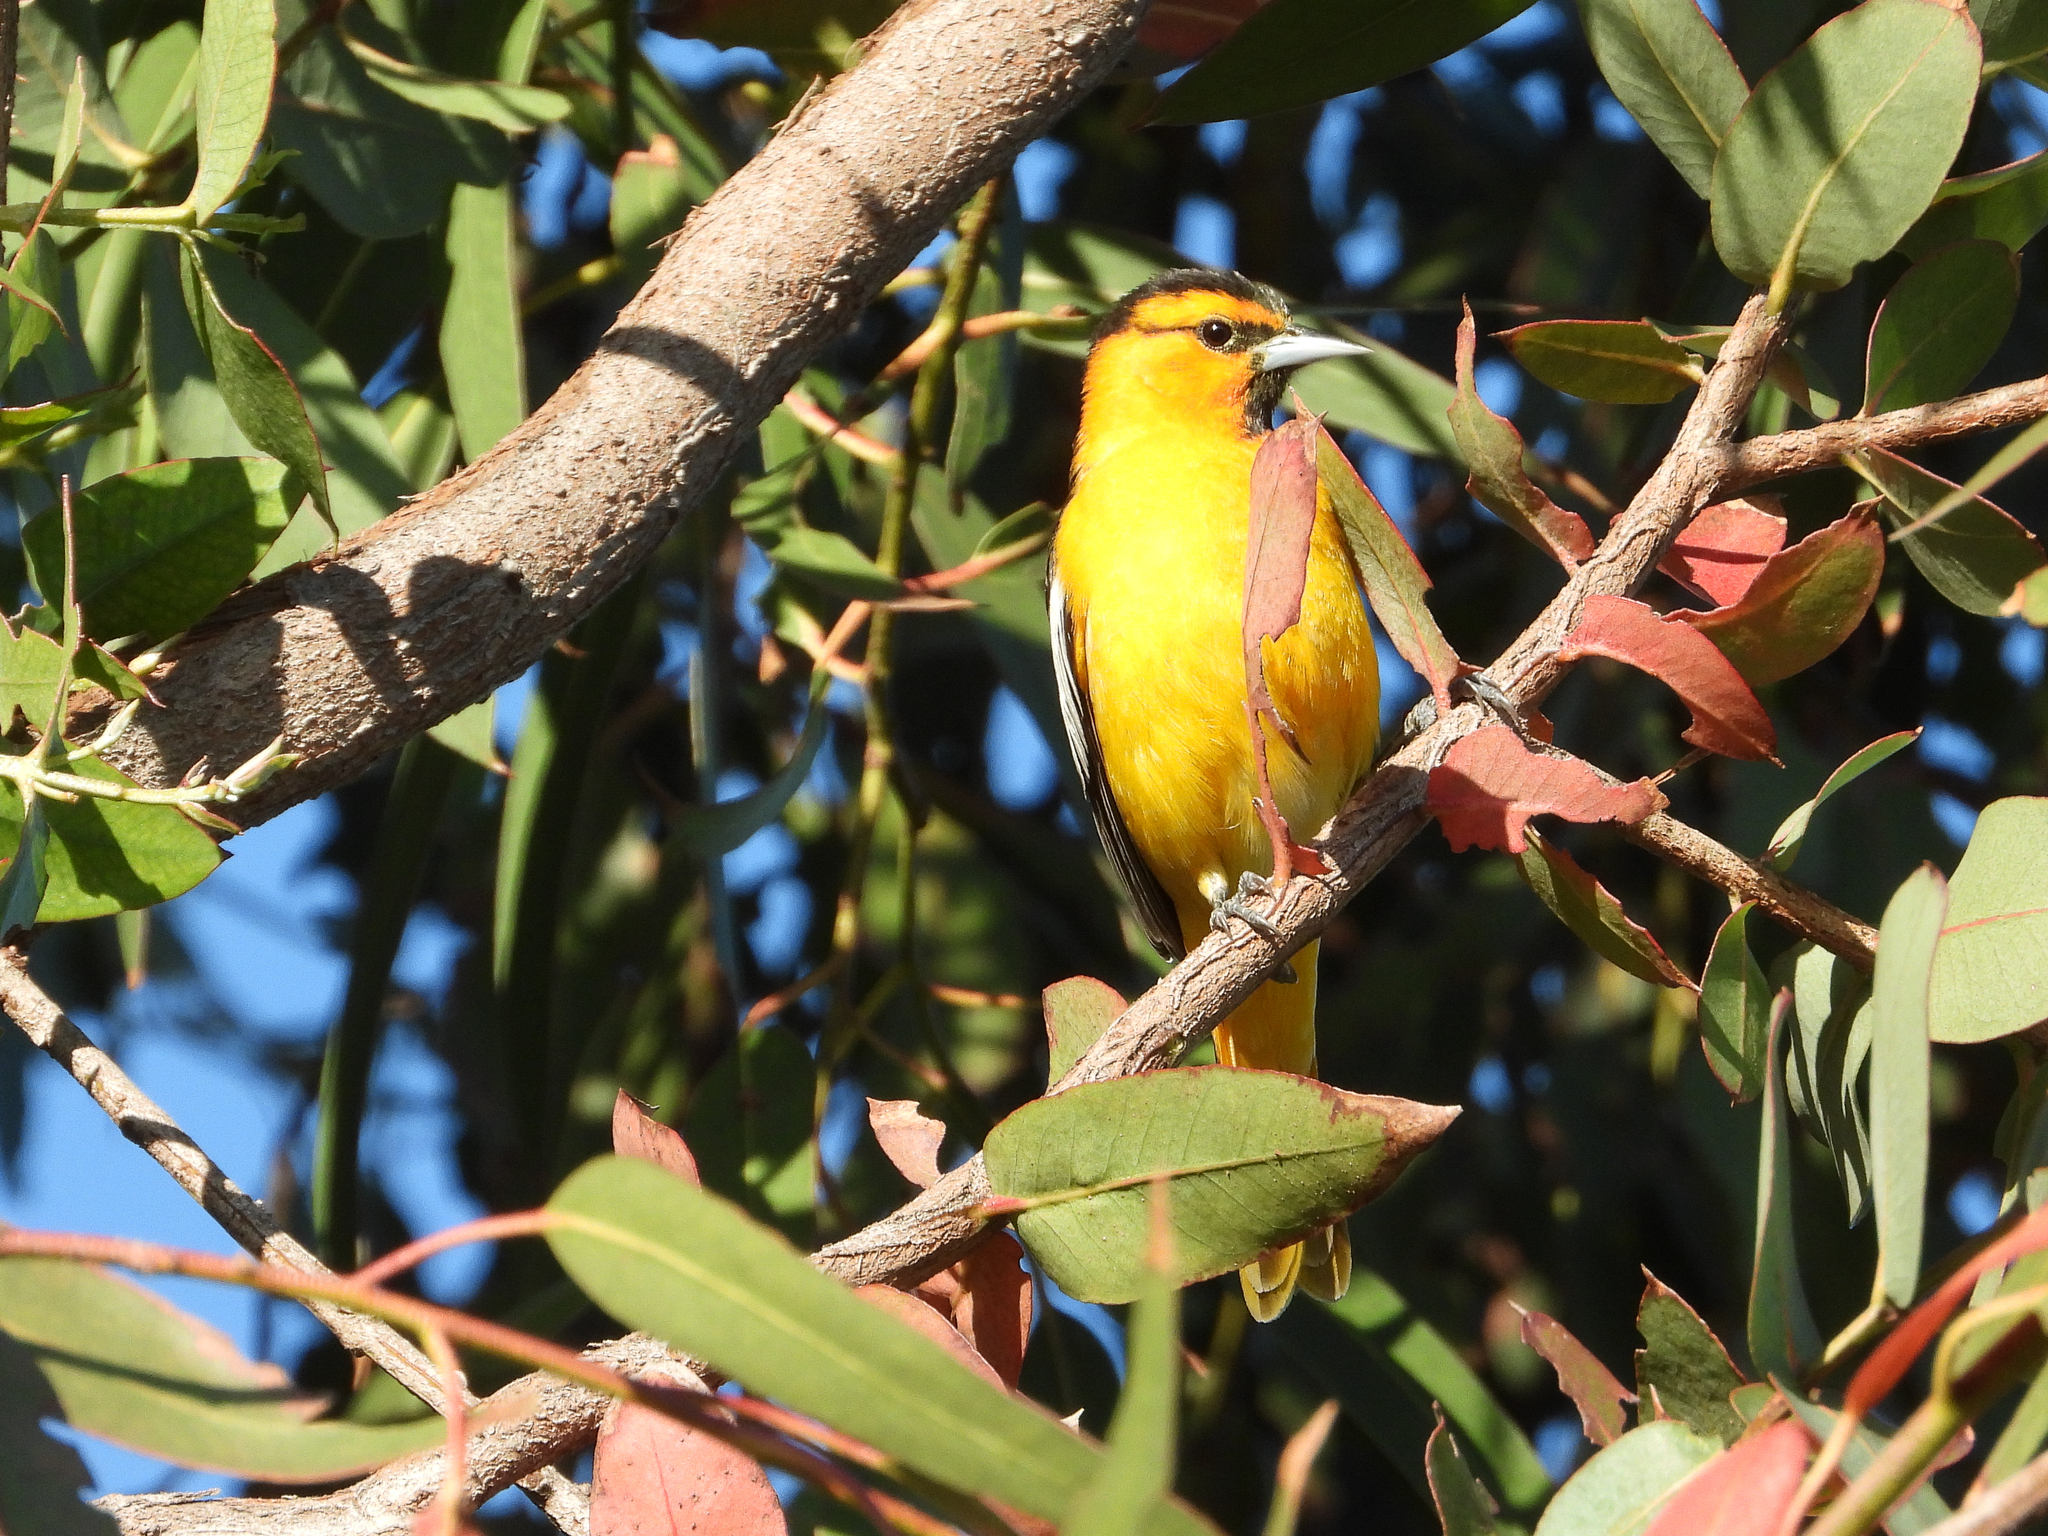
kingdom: Animalia
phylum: Chordata
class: Aves
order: Passeriformes
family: Icteridae
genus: Icterus
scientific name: Icterus bullockii
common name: Bullock's oriole
